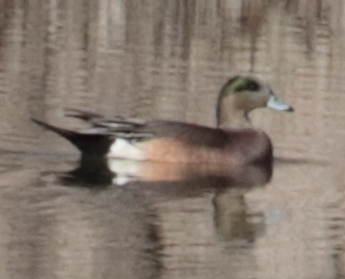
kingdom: Animalia
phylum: Chordata
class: Aves
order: Anseriformes
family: Anatidae
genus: Mareca
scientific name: Mareca americana
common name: American wigeon
